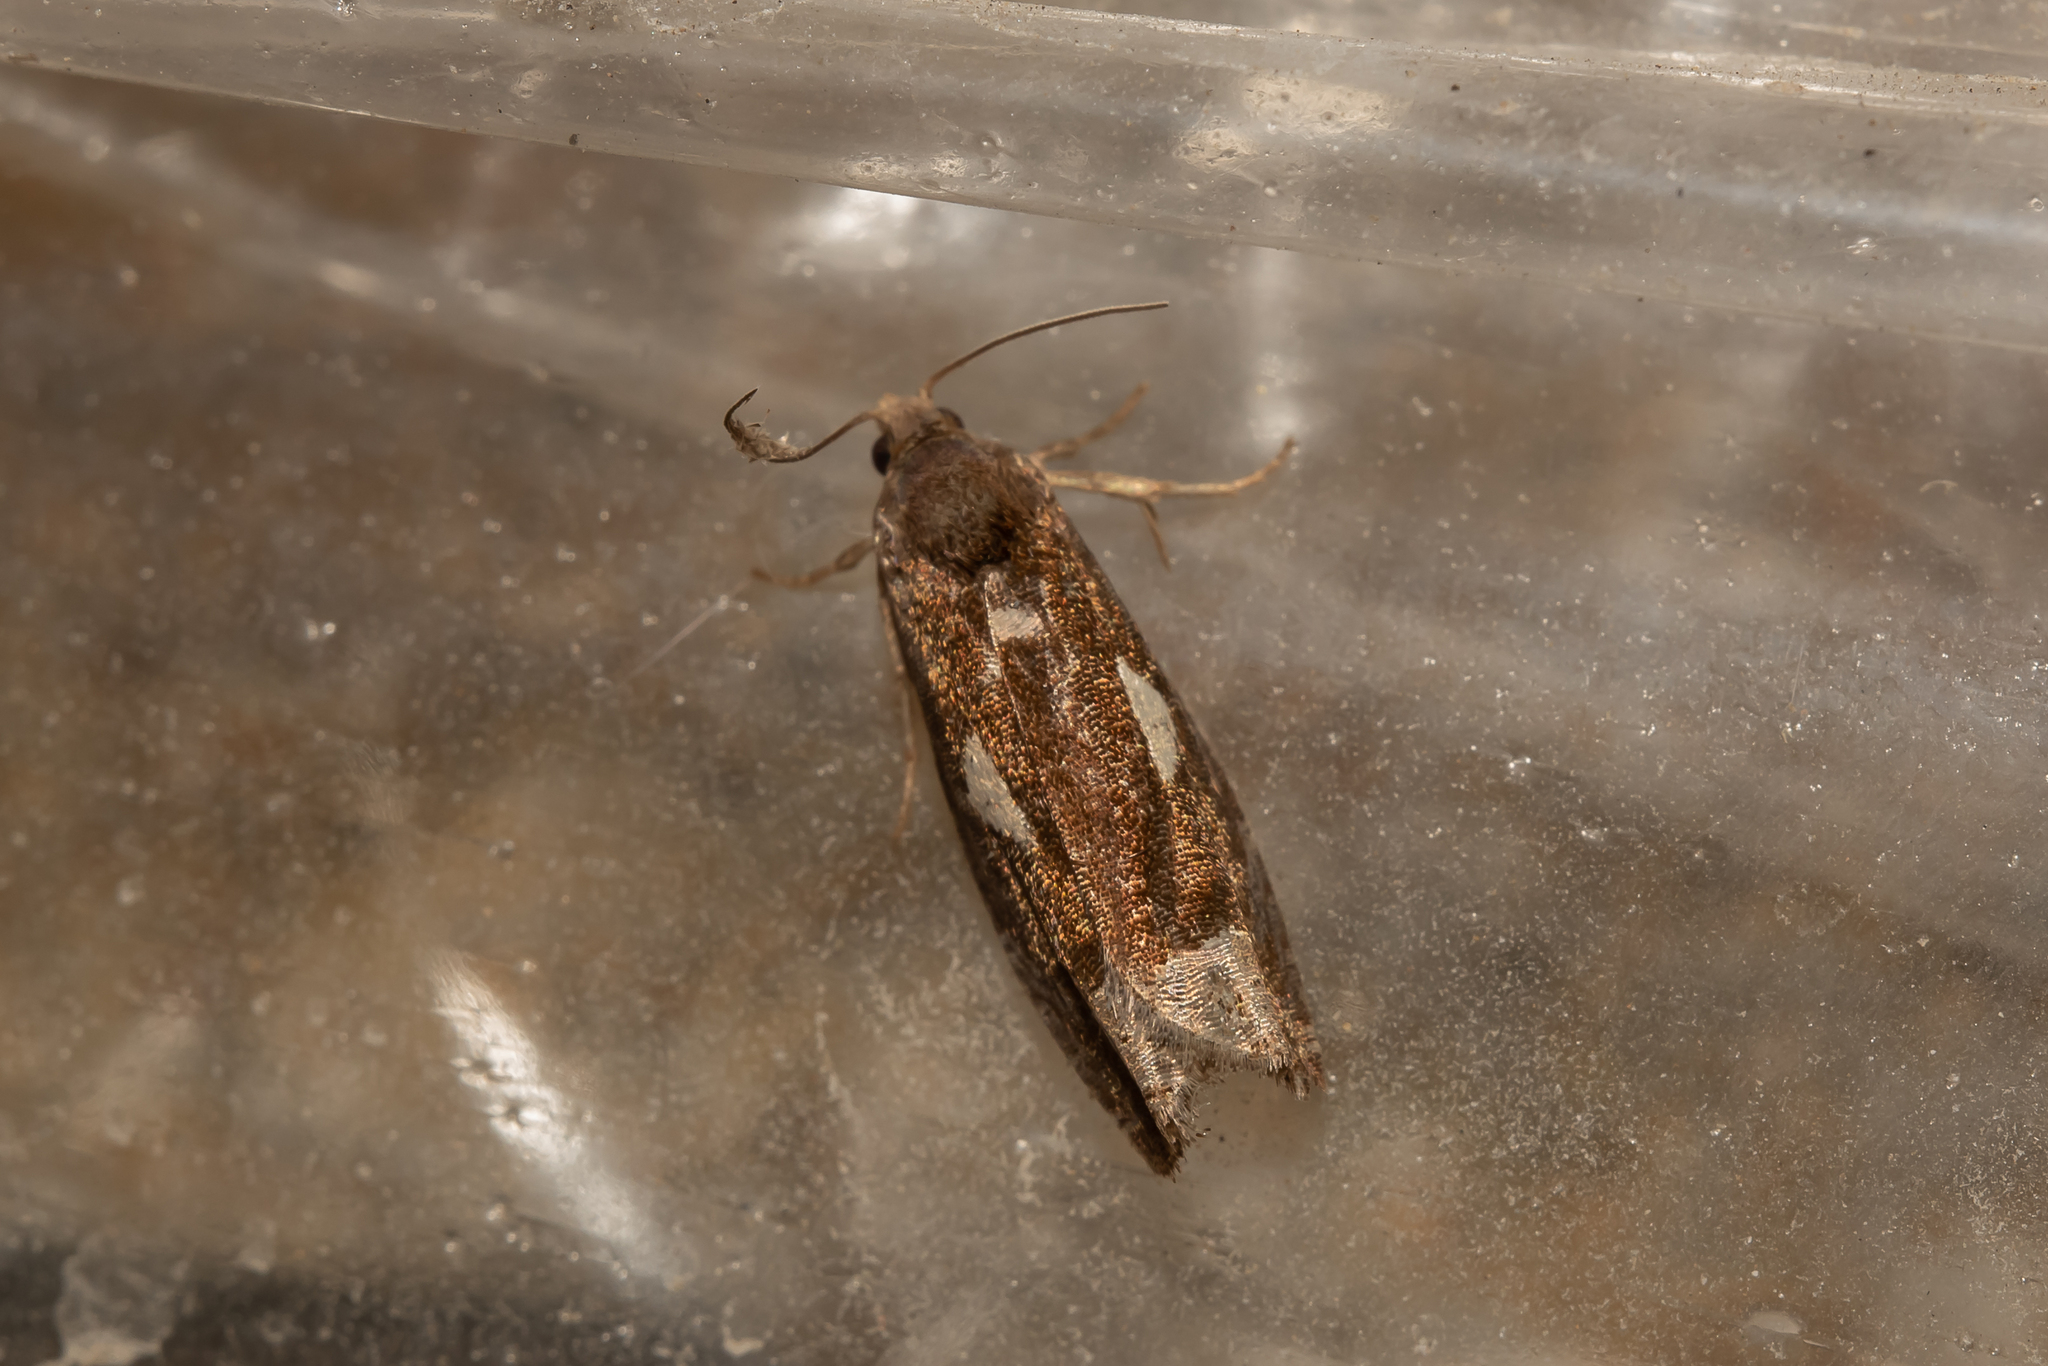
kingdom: Animalia
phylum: Arthropoda
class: Insecta
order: Lepidoptera
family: Tortricidae
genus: Epiblema
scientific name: Epiblema foenella
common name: White-foot bell
